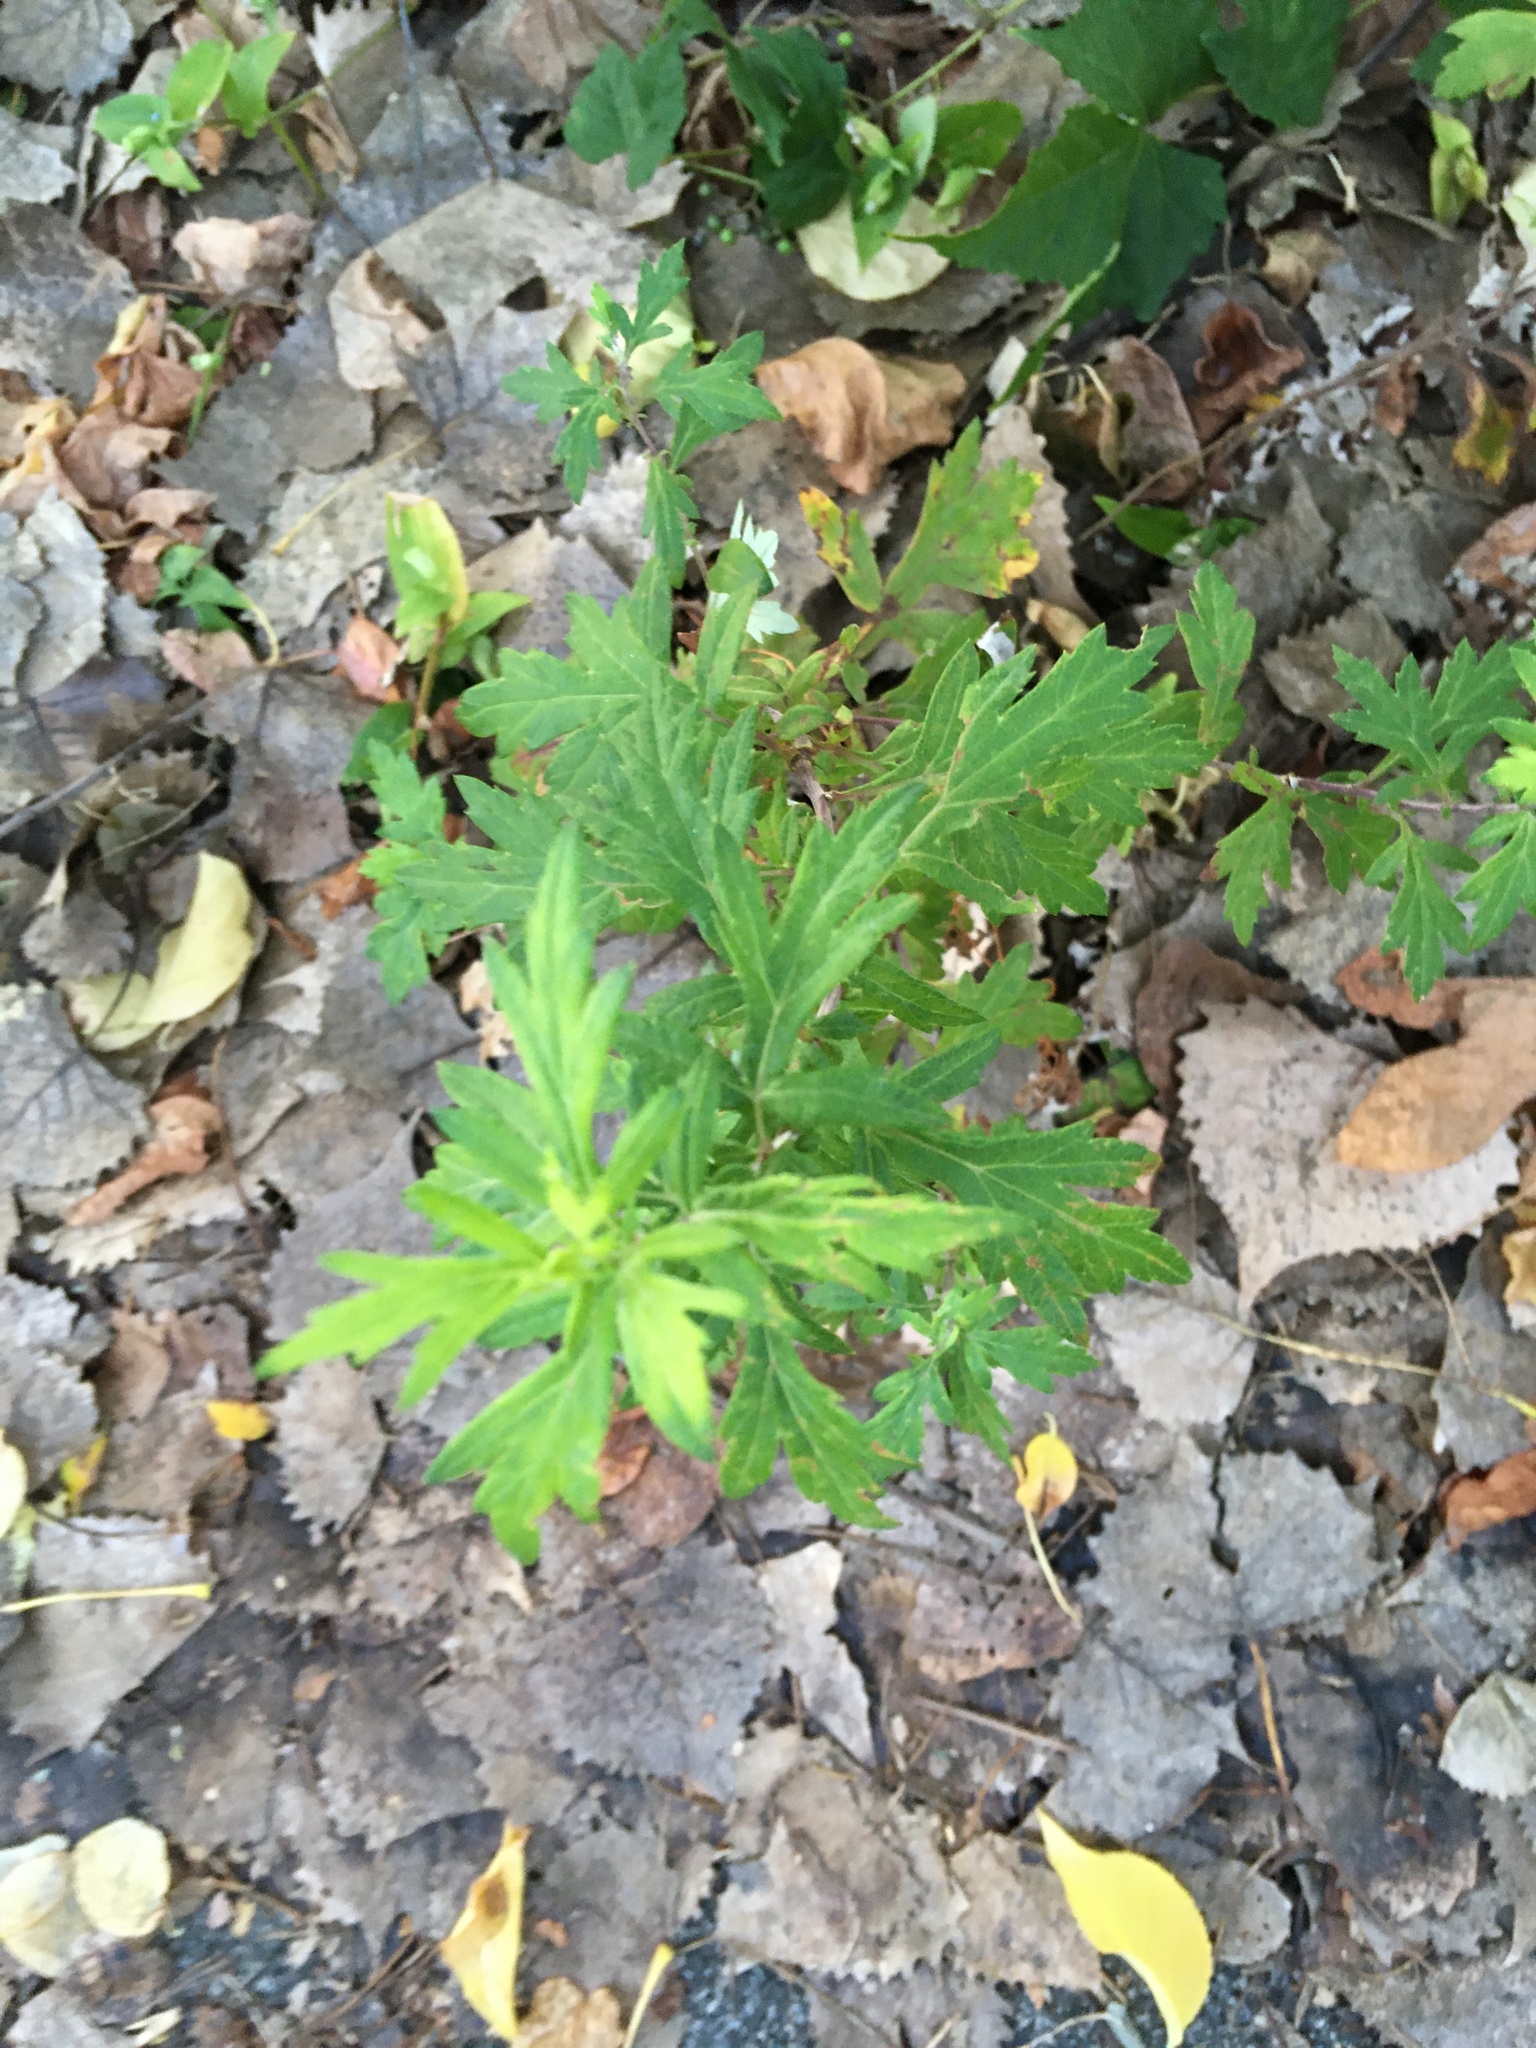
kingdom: Plantae
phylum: Tracheophyta
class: Magnoliopsida
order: Asterales
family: Asteraceae
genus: Artemisia
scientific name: Artemisia vulgaris
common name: Mugwort
